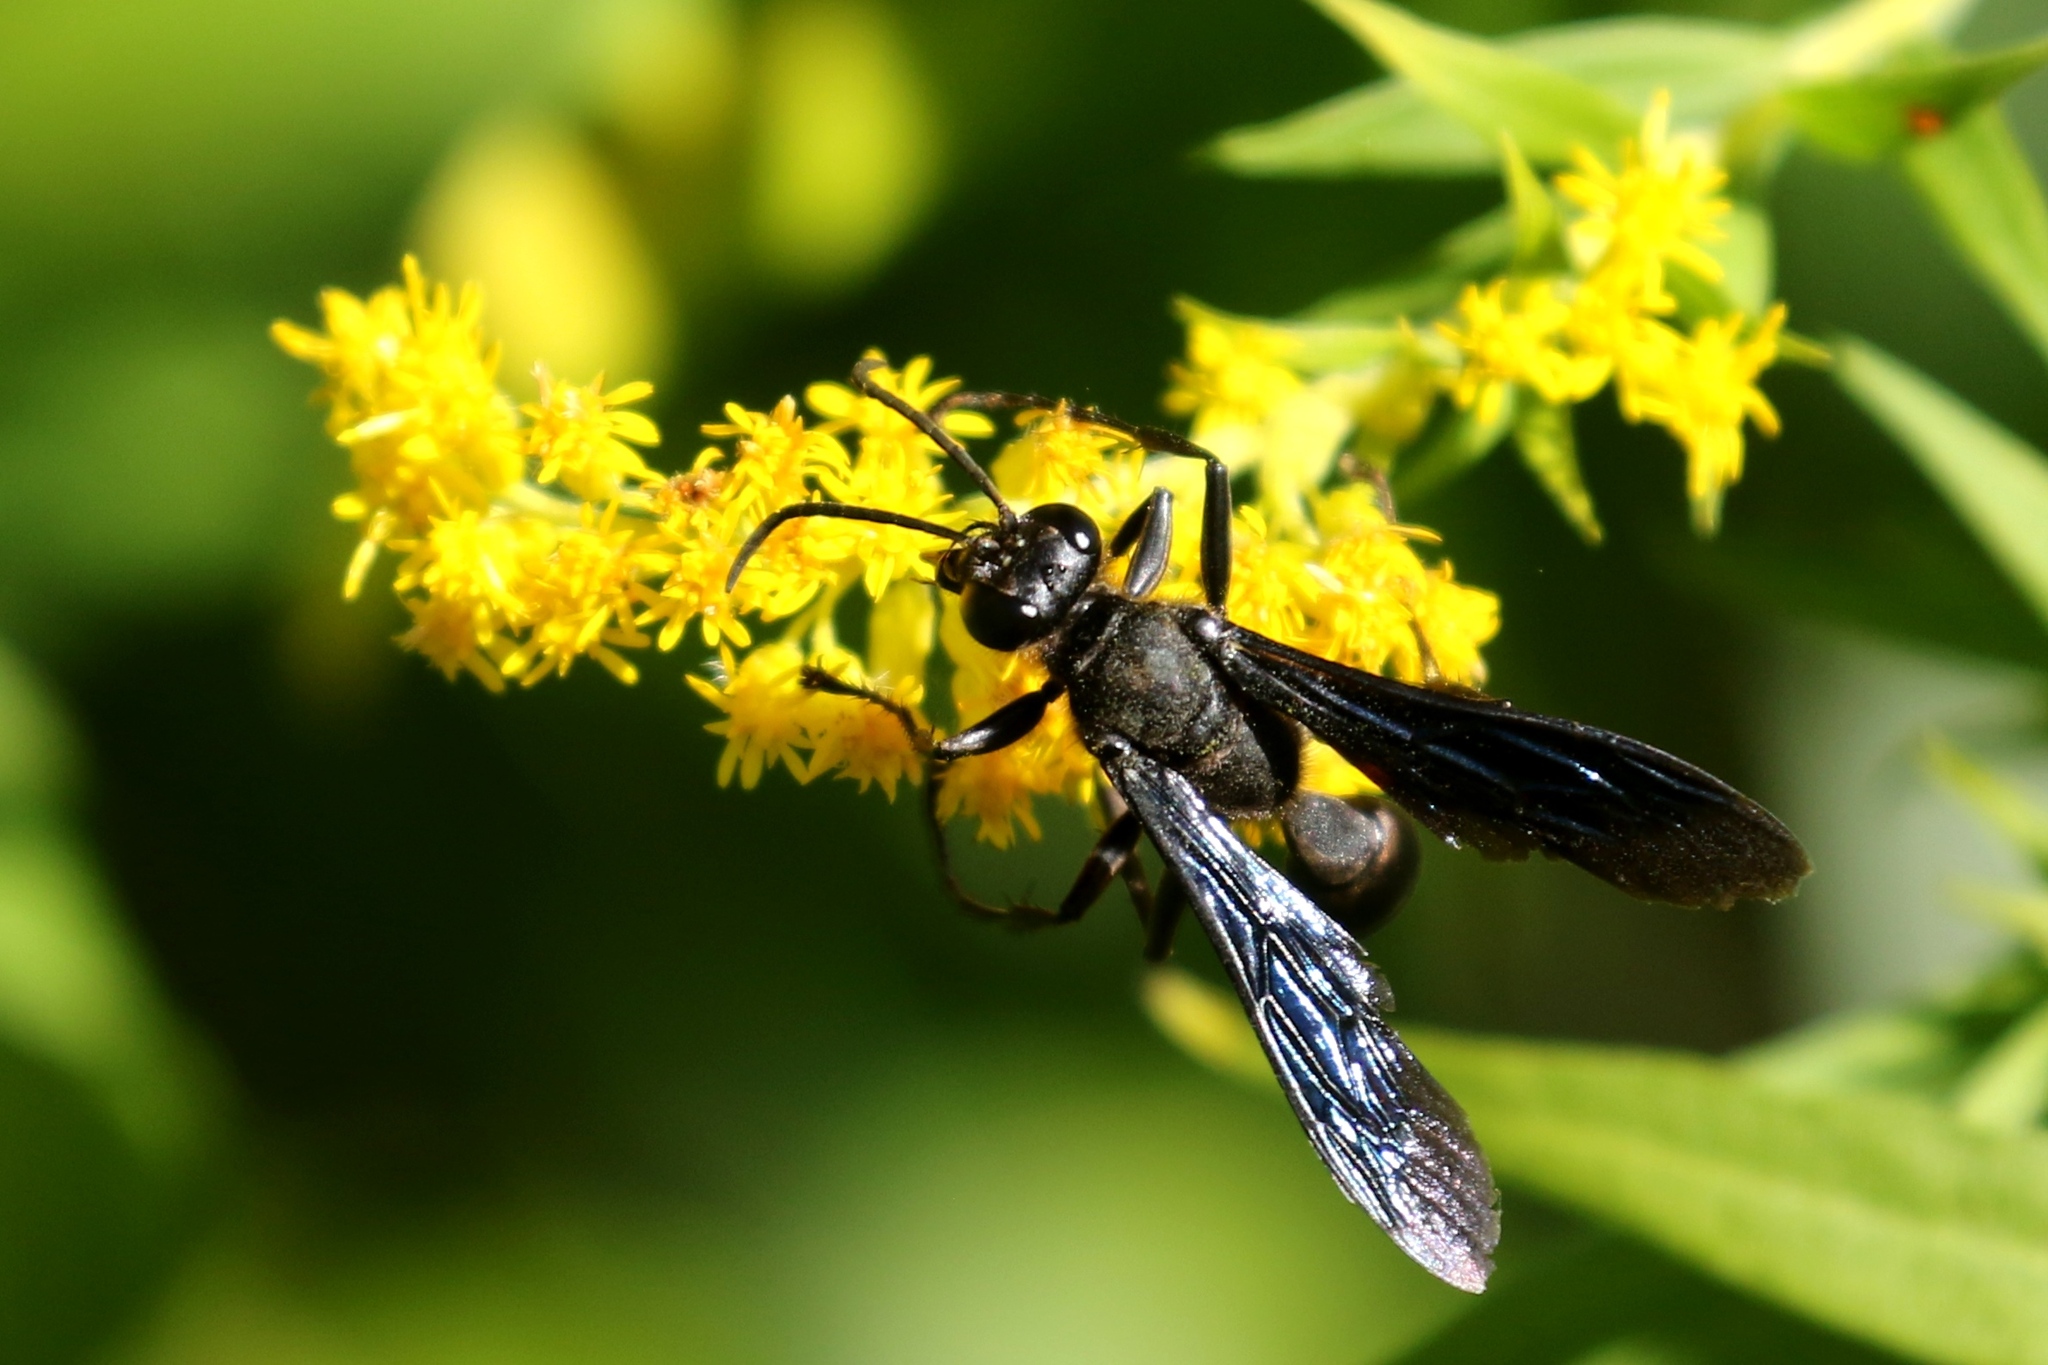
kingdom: Animalia
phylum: Arthropoda
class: Insecta
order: Hymenoptera
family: Sphecidae
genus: Sphex
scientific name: Sphex pensylvanicus
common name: Great black digger wasp
